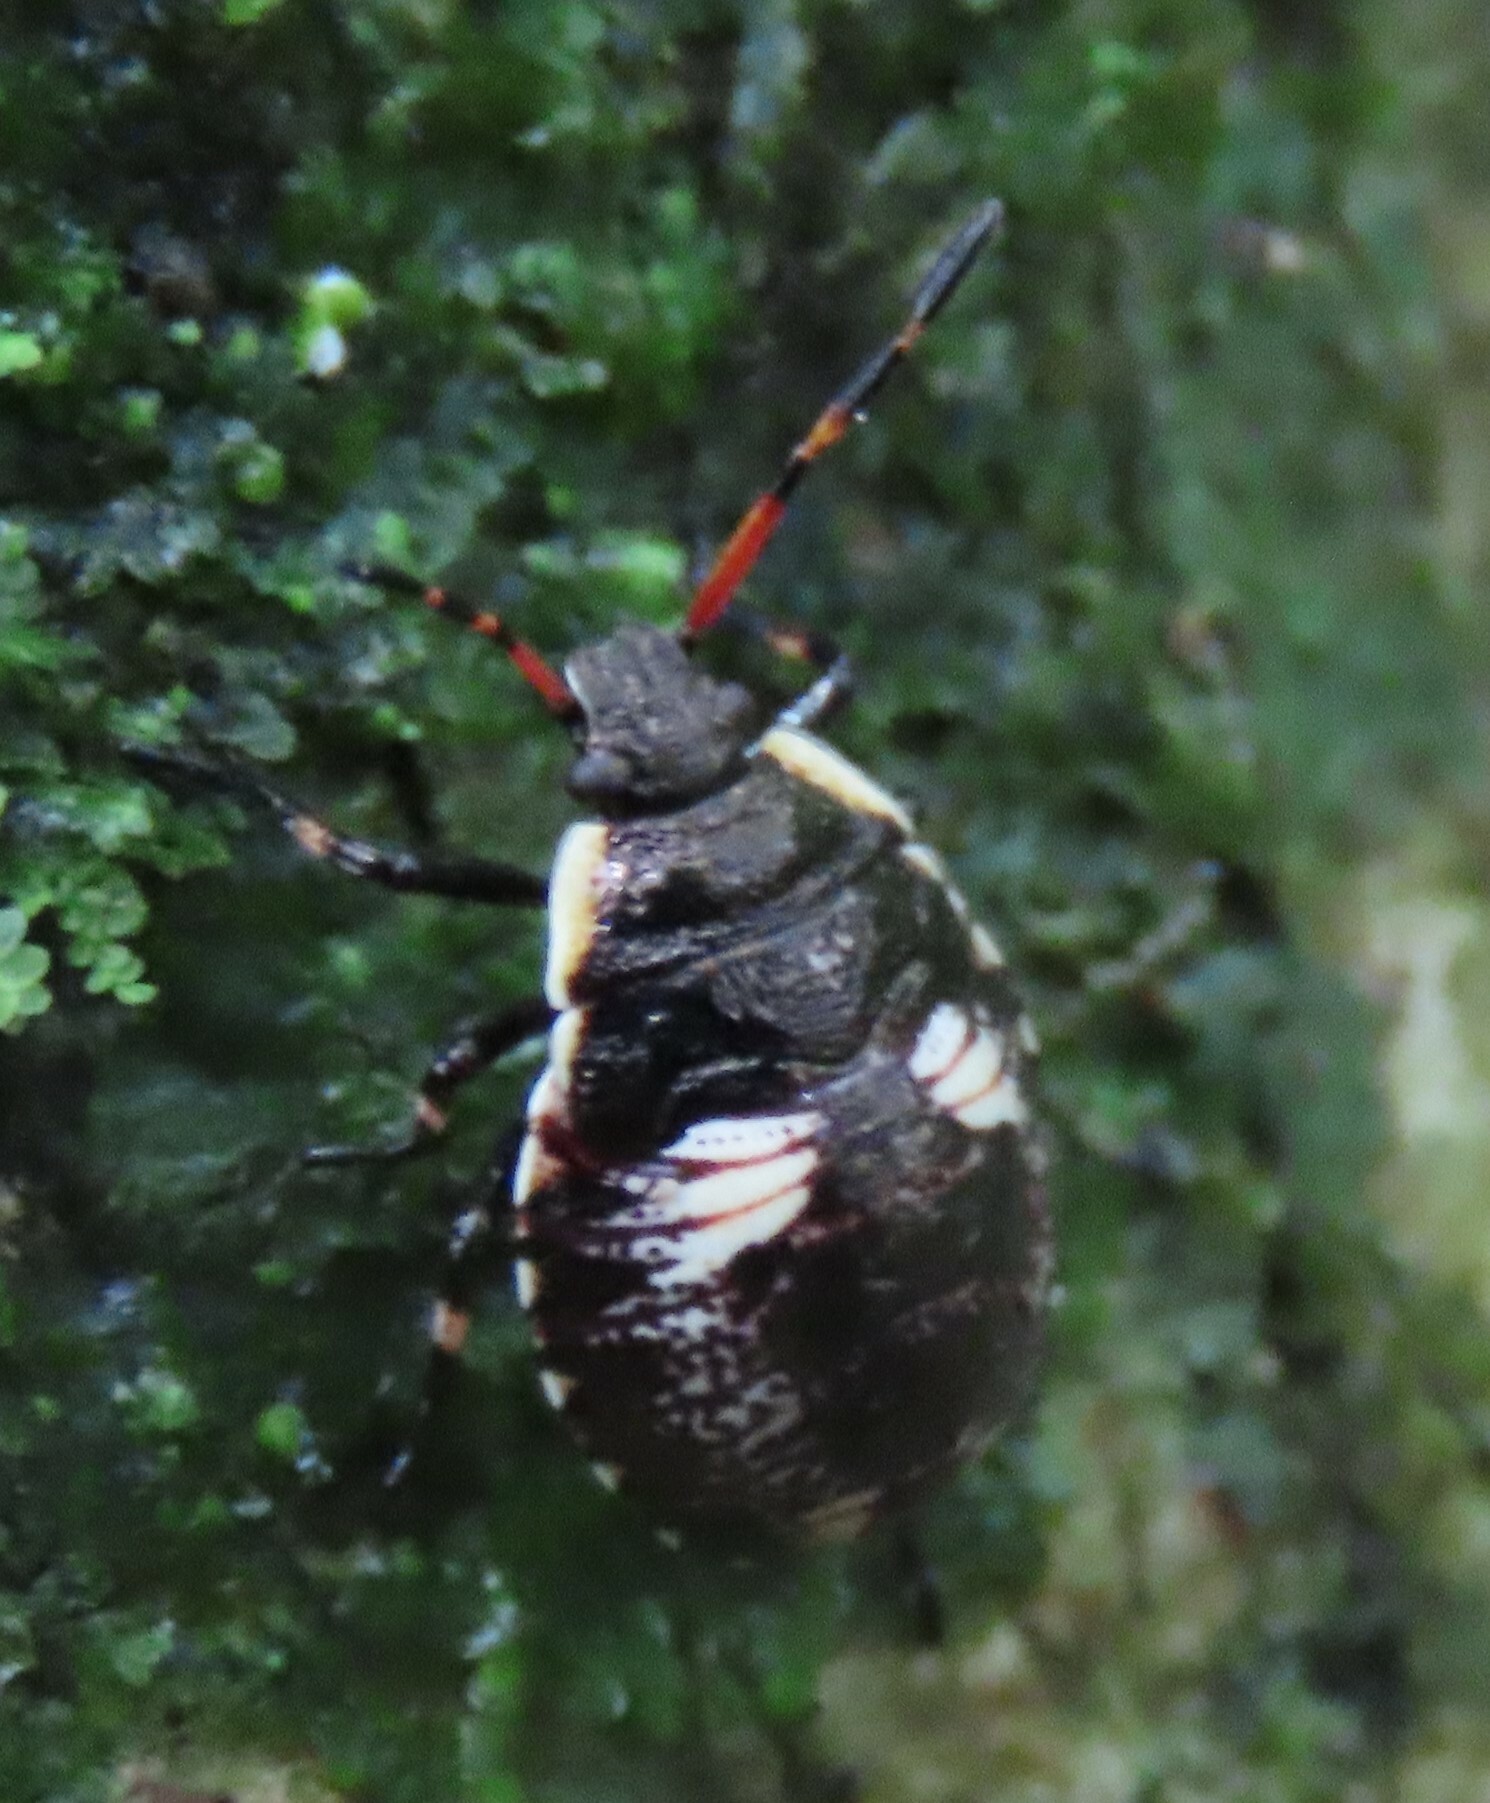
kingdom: Animalia
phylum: Arthropoda
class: Insecta
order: Hemiptera
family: Pentatomidae
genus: Cermatulus
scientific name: Cermatulus nasalis
